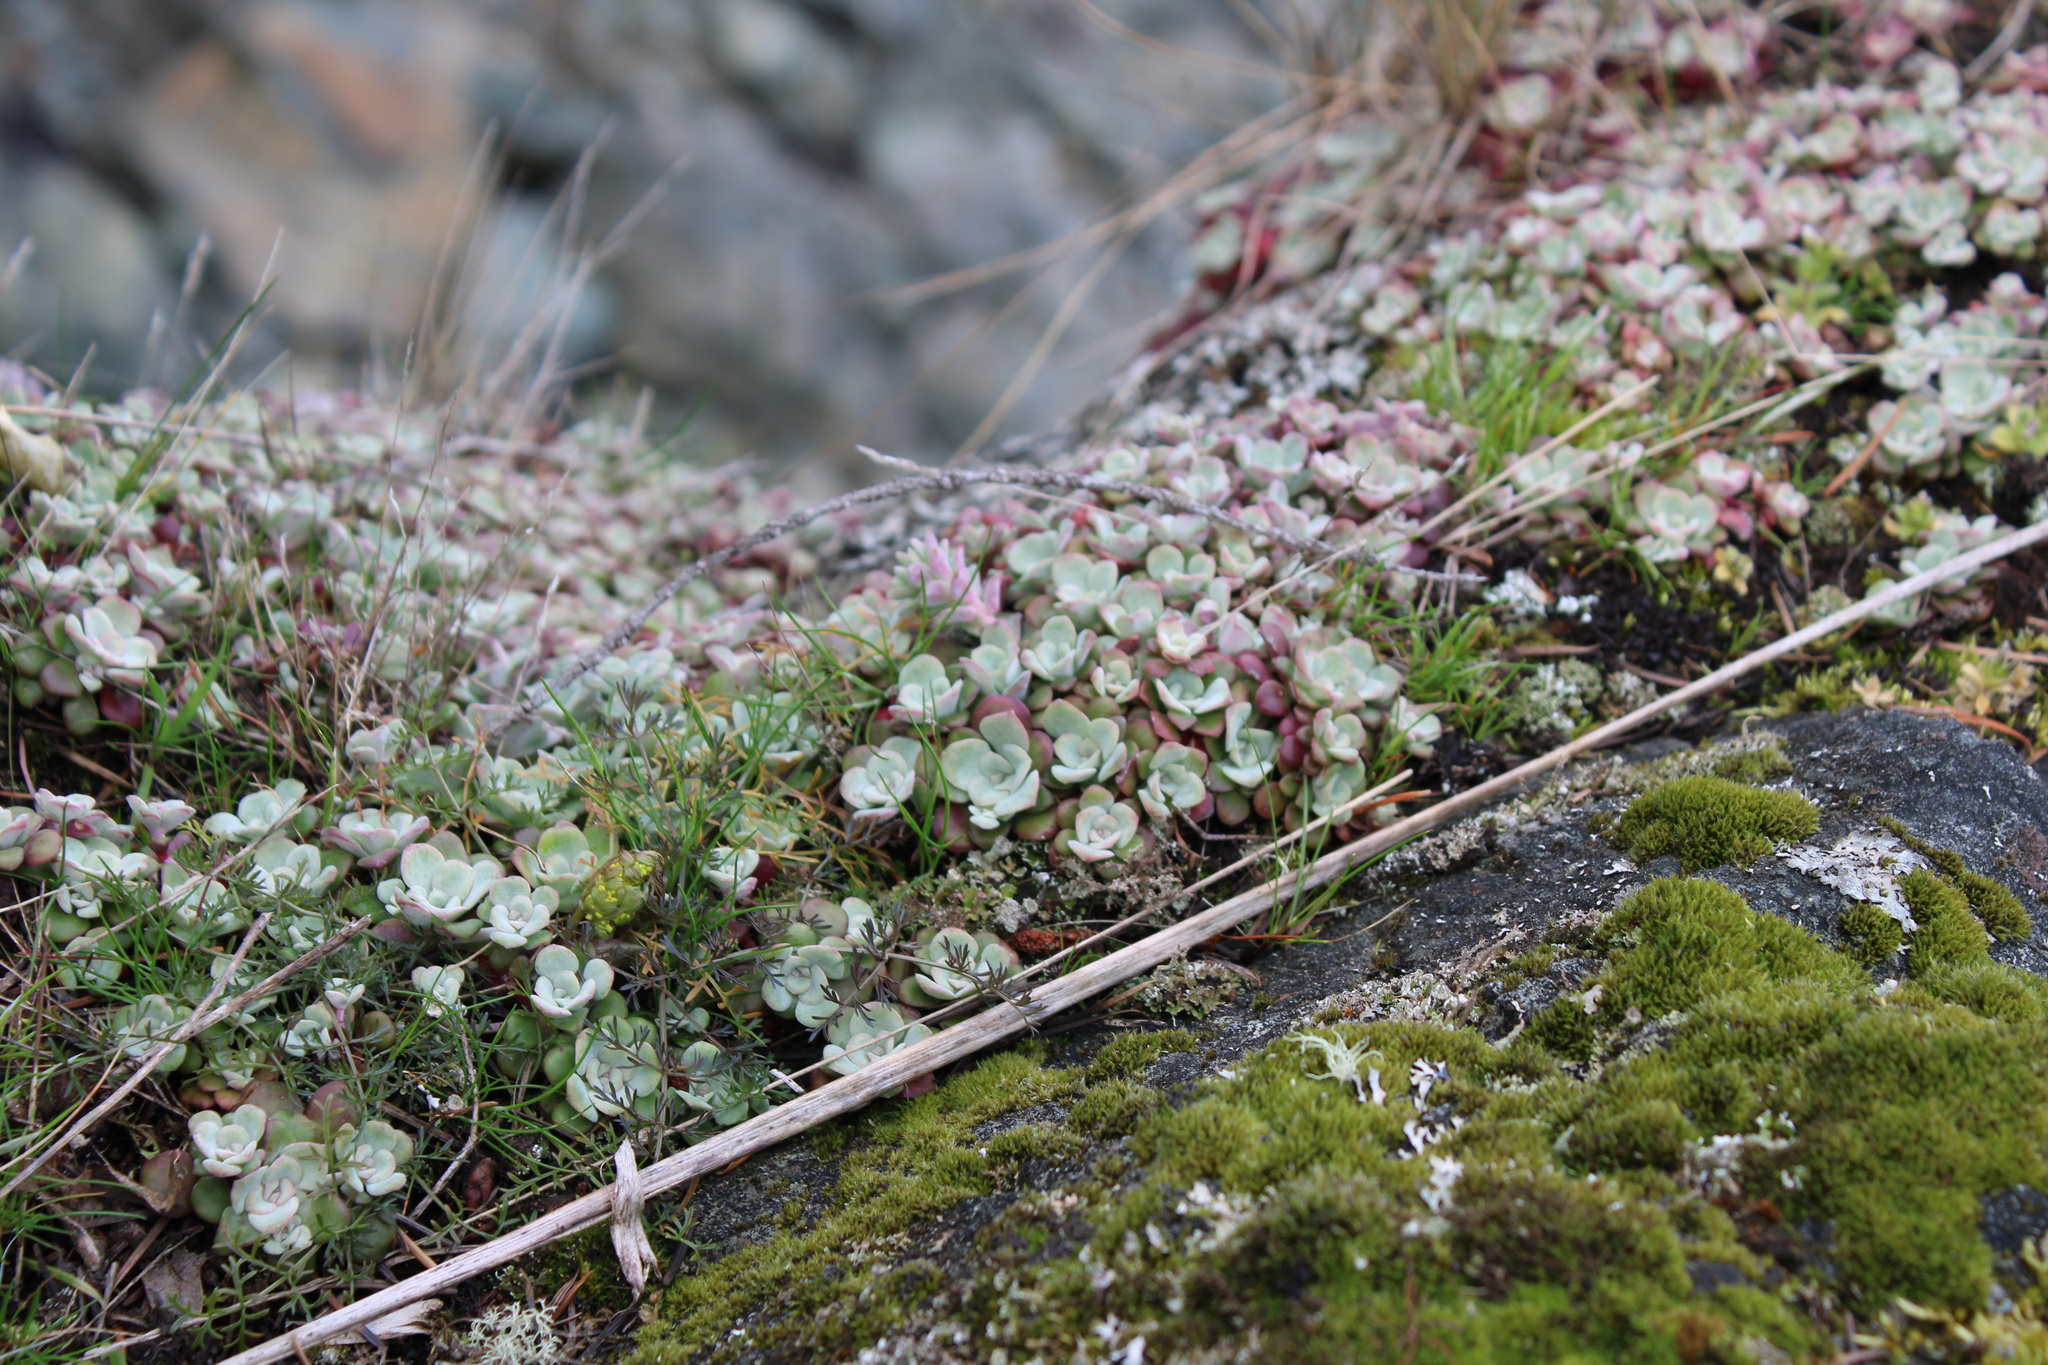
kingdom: Plantae
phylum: Tracheophyta
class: Magnoliopsida
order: Saxifragales
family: Crassulaceae
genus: Sedum
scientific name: Sedum spathulifolium
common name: Colorado stonecrop
